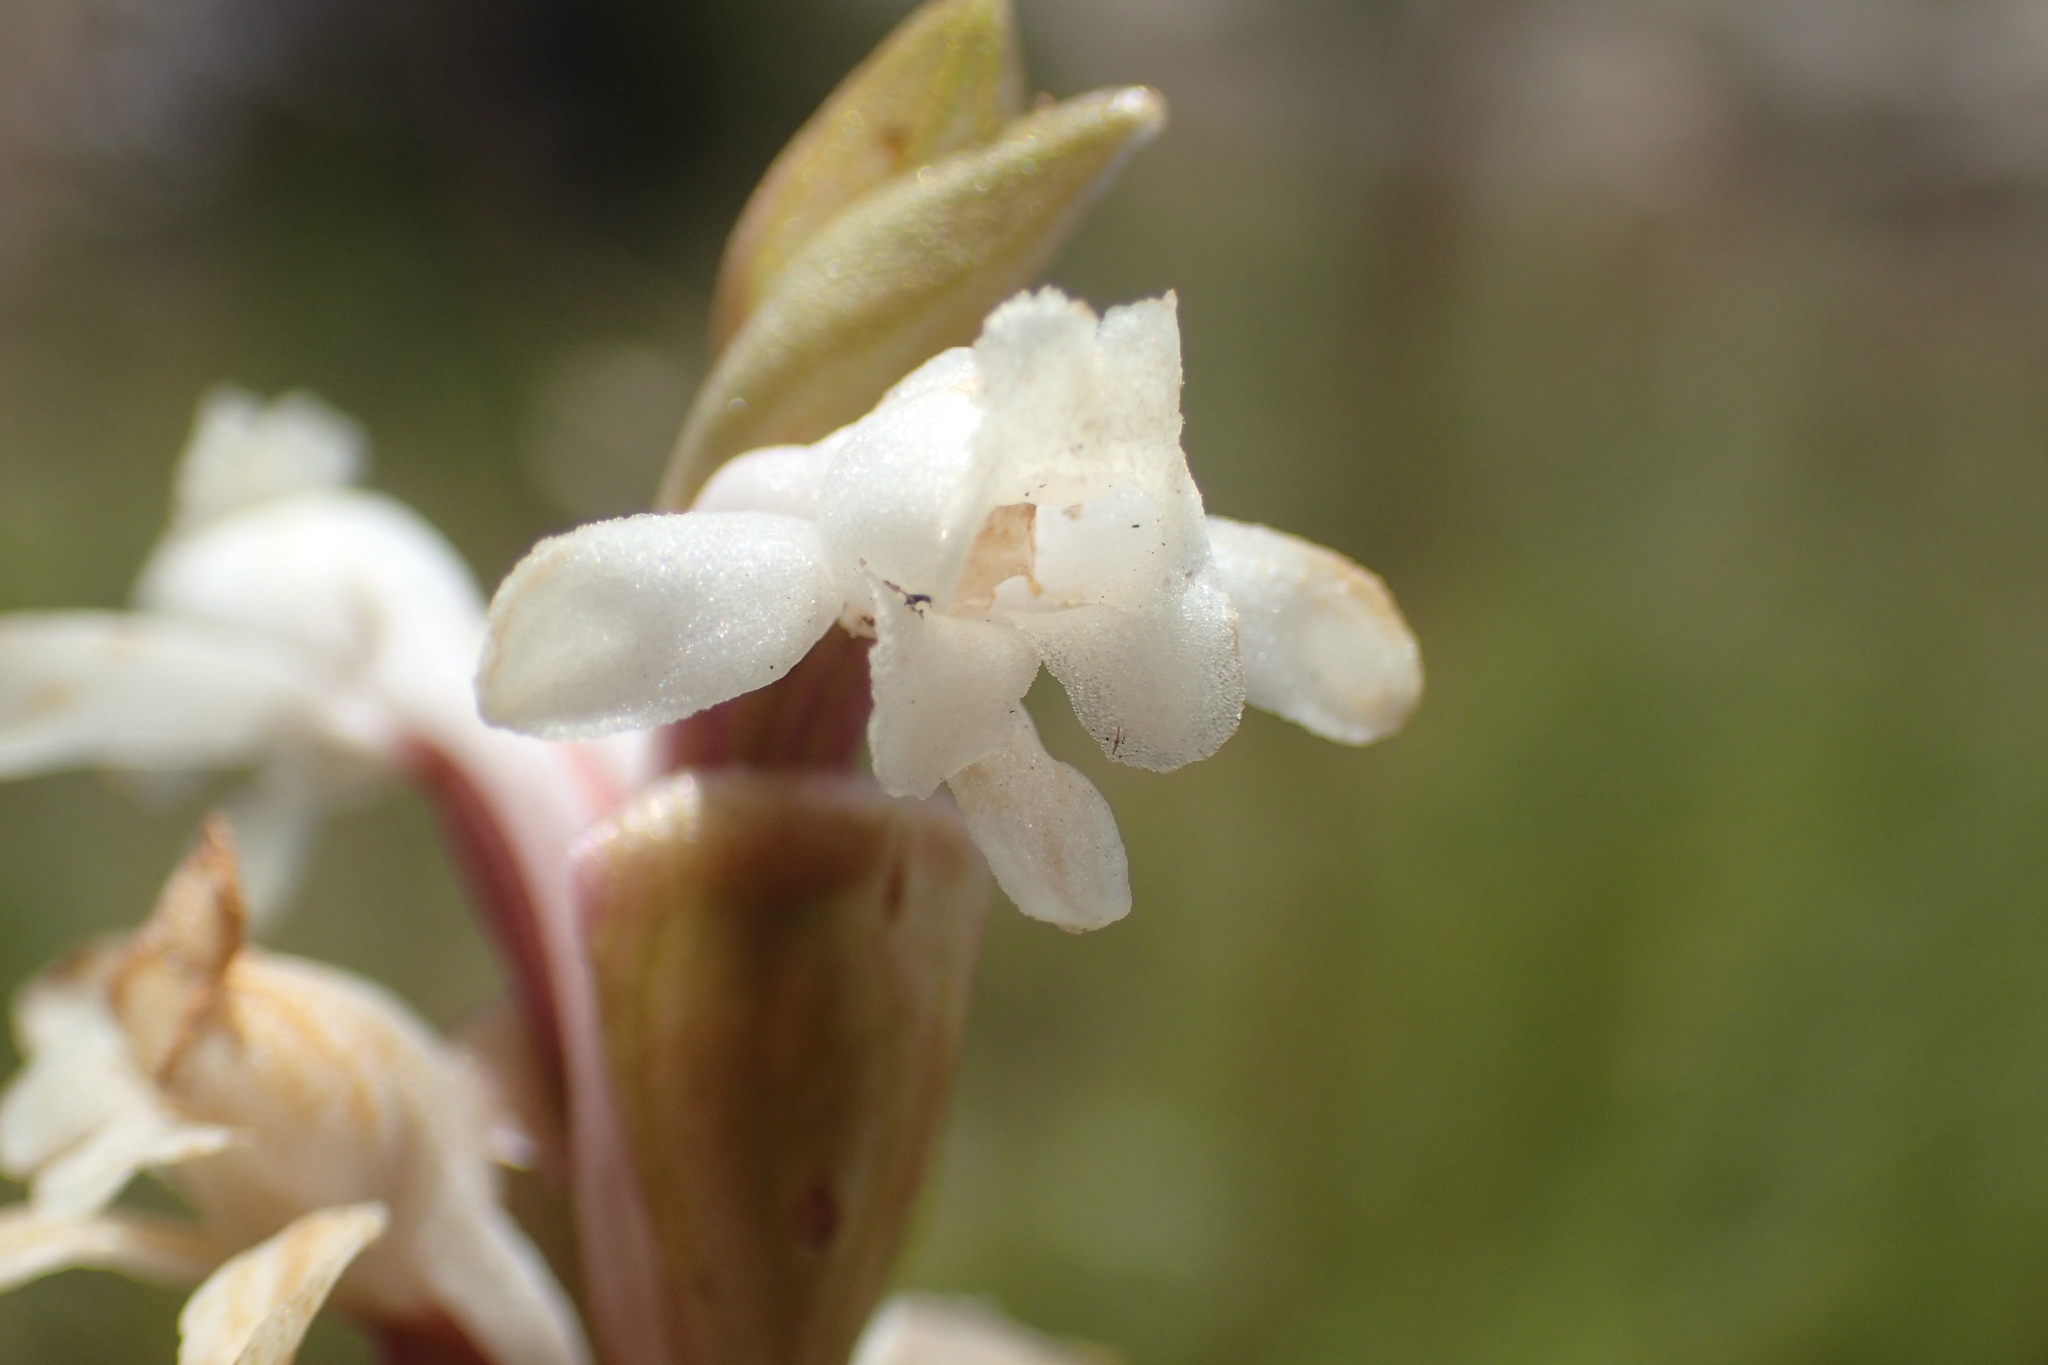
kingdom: Plantae
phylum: Tracheophyta
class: Liliopsida
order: Asparagales
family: Orchidaceae
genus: Satyrium
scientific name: Satyrium longicauda
